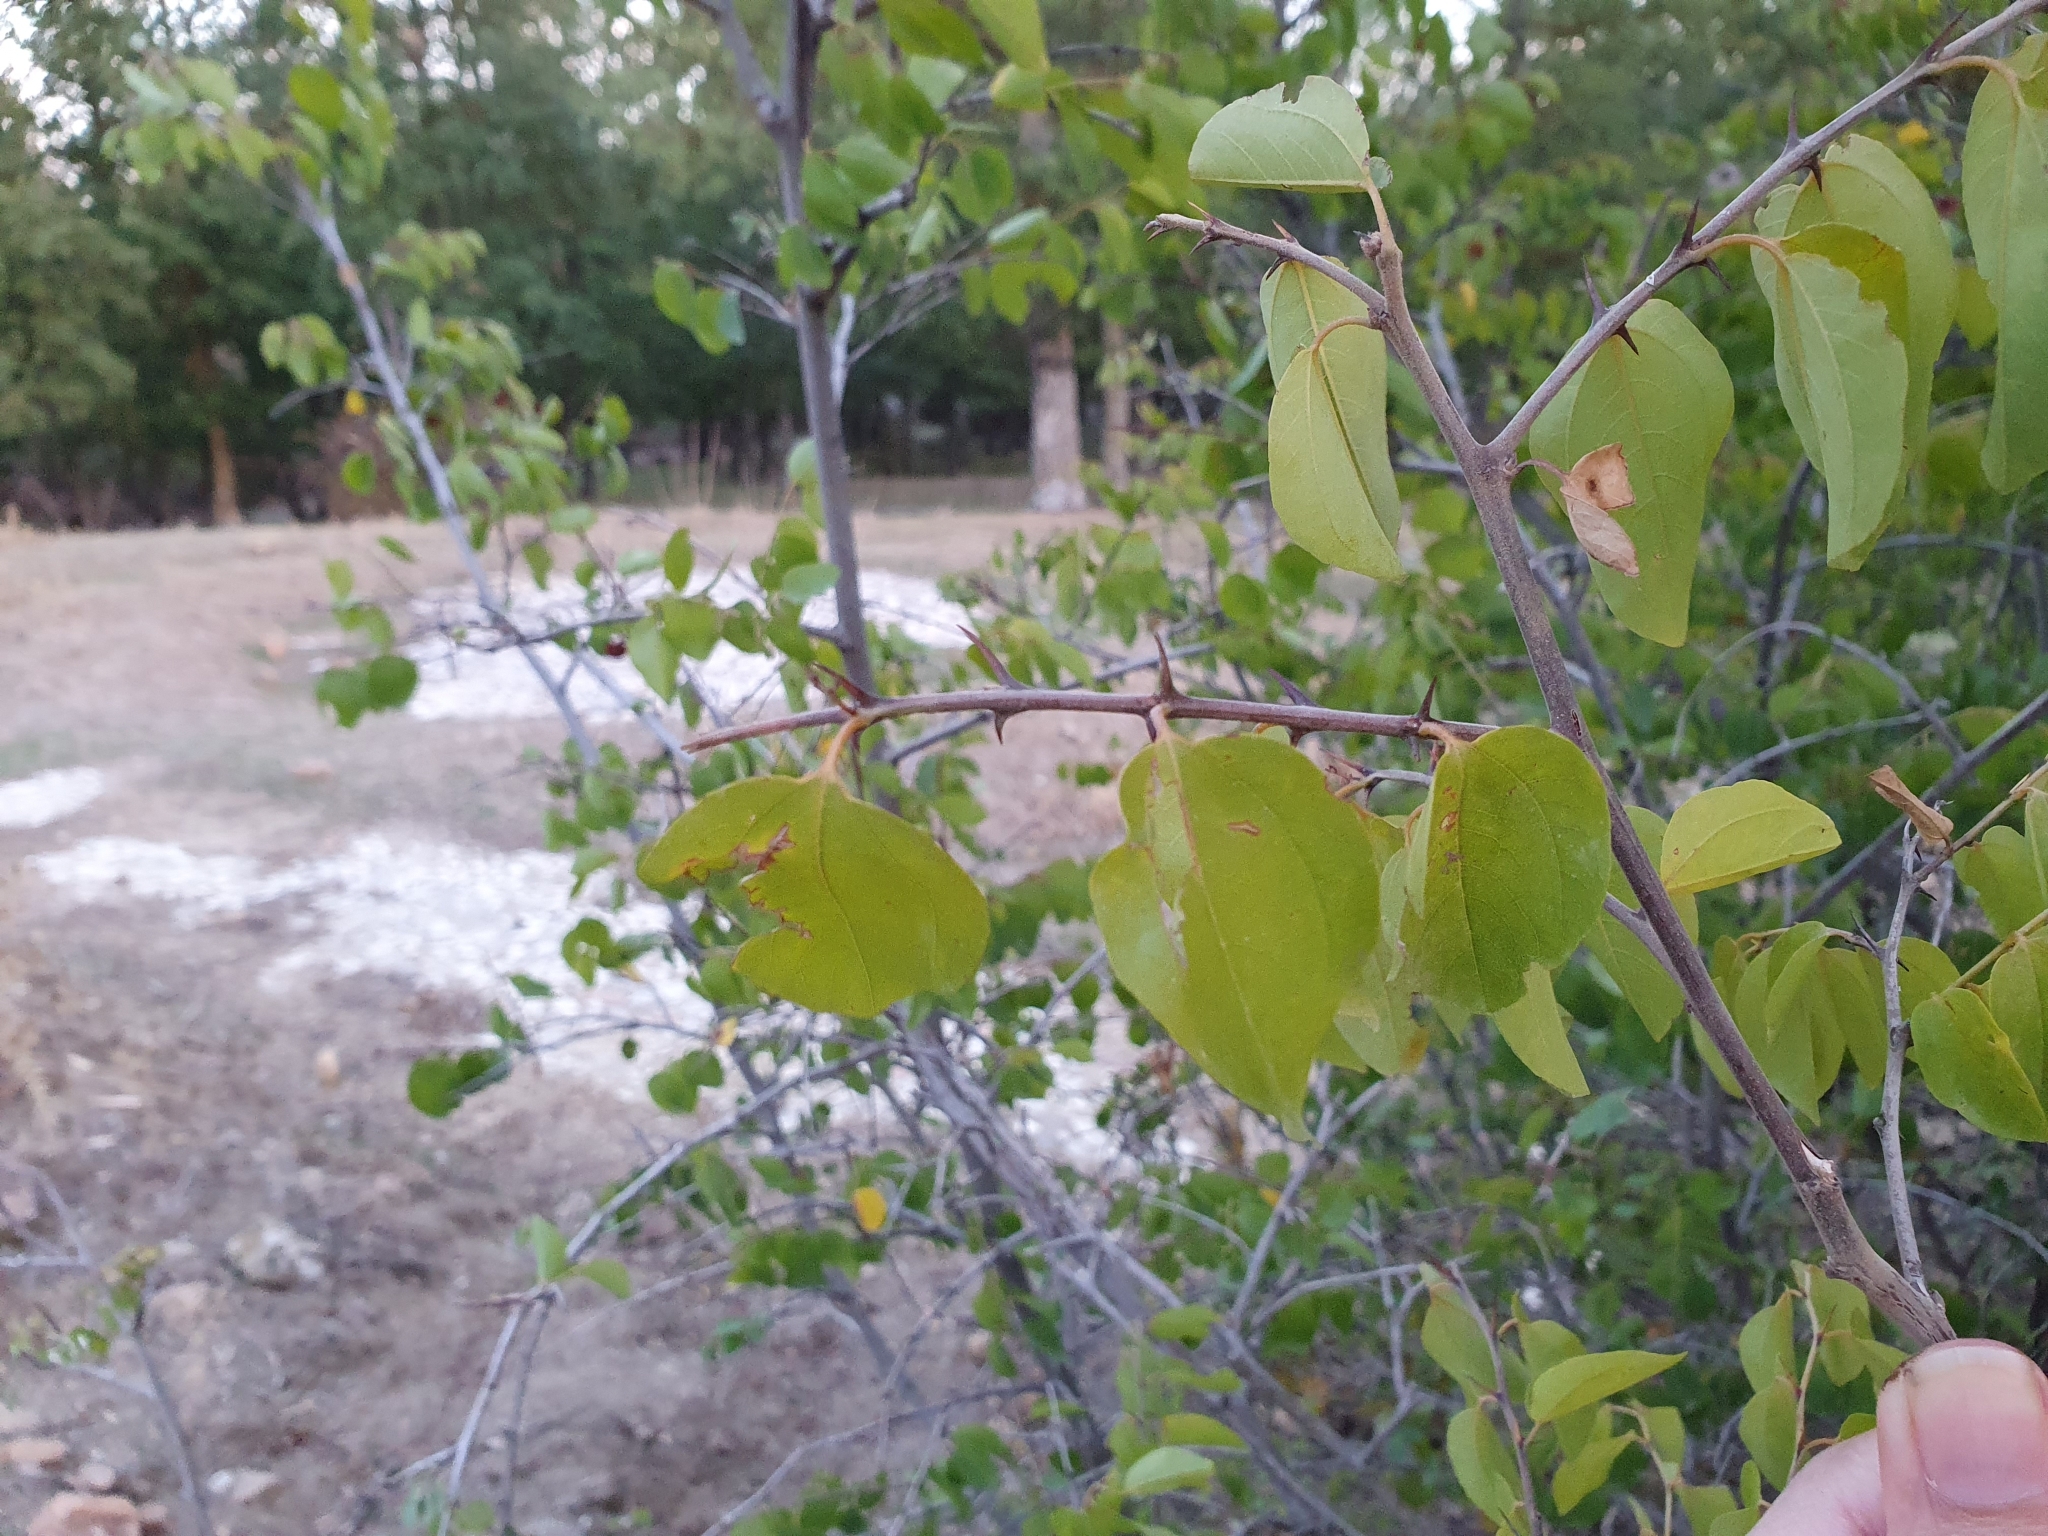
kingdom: Plantae
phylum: Tracheophyta
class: Magnoliopsida
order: Rosales
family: Rhamnaceae
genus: Paliurus
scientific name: Paliurus spina-christi
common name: Jeruselem thorn
